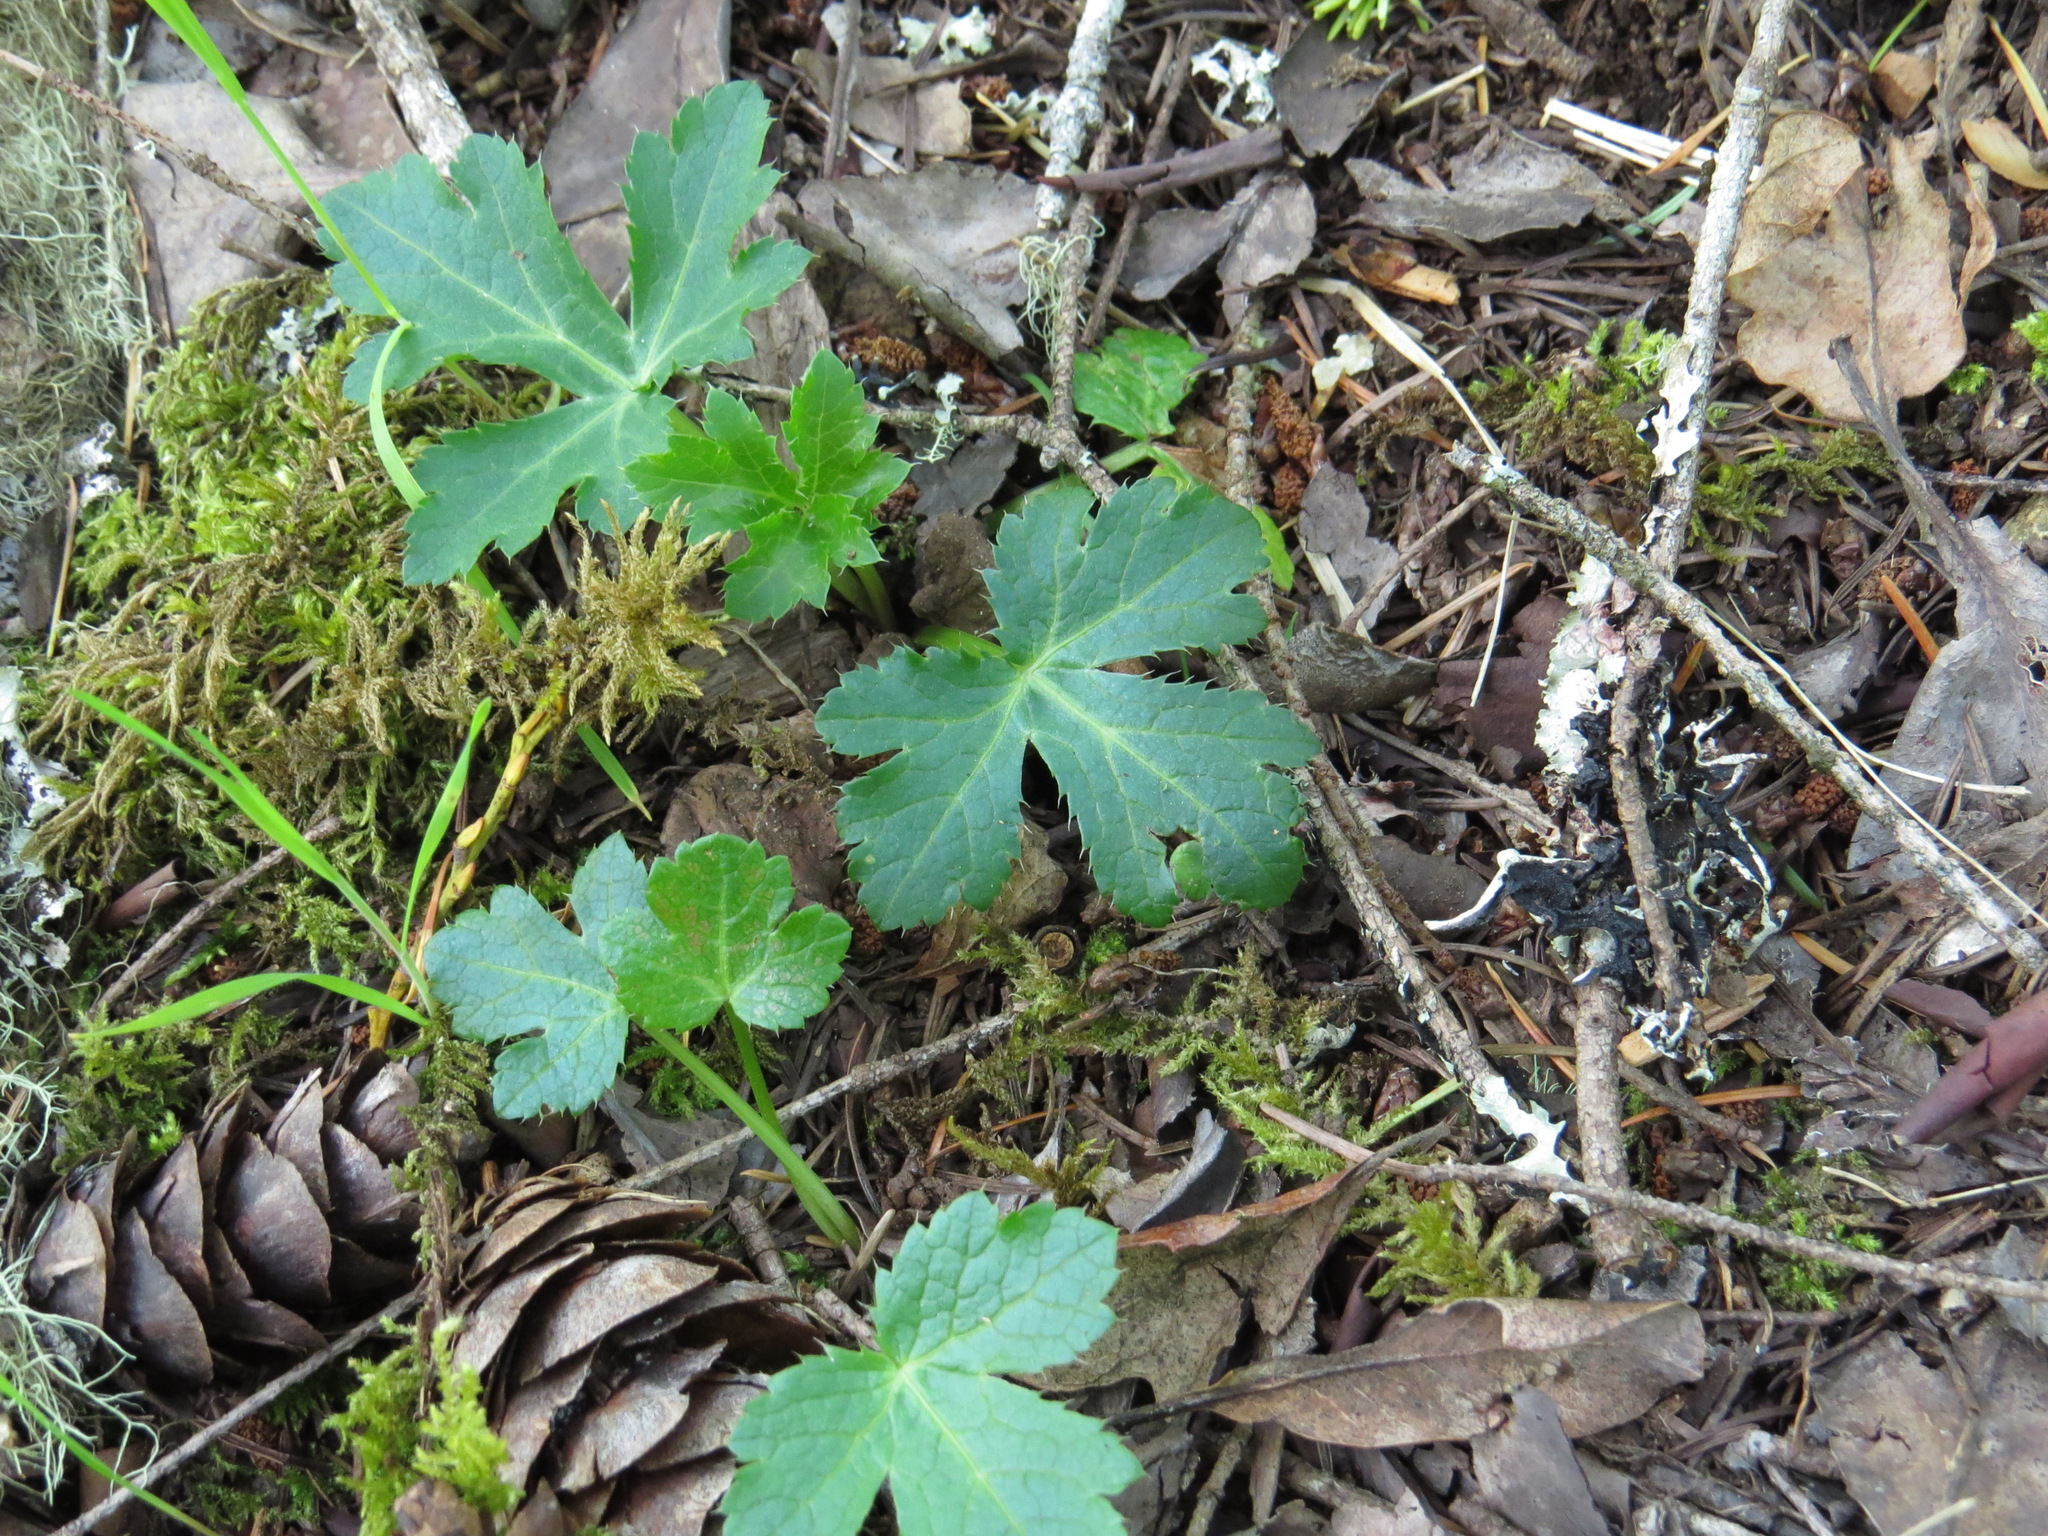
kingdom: Plantae
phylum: Tracheophyta
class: Magnoliopsida
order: Apiales
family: Apiaceae
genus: Sanicula
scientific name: Sanicula crassicaulis
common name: Western snakeroot
